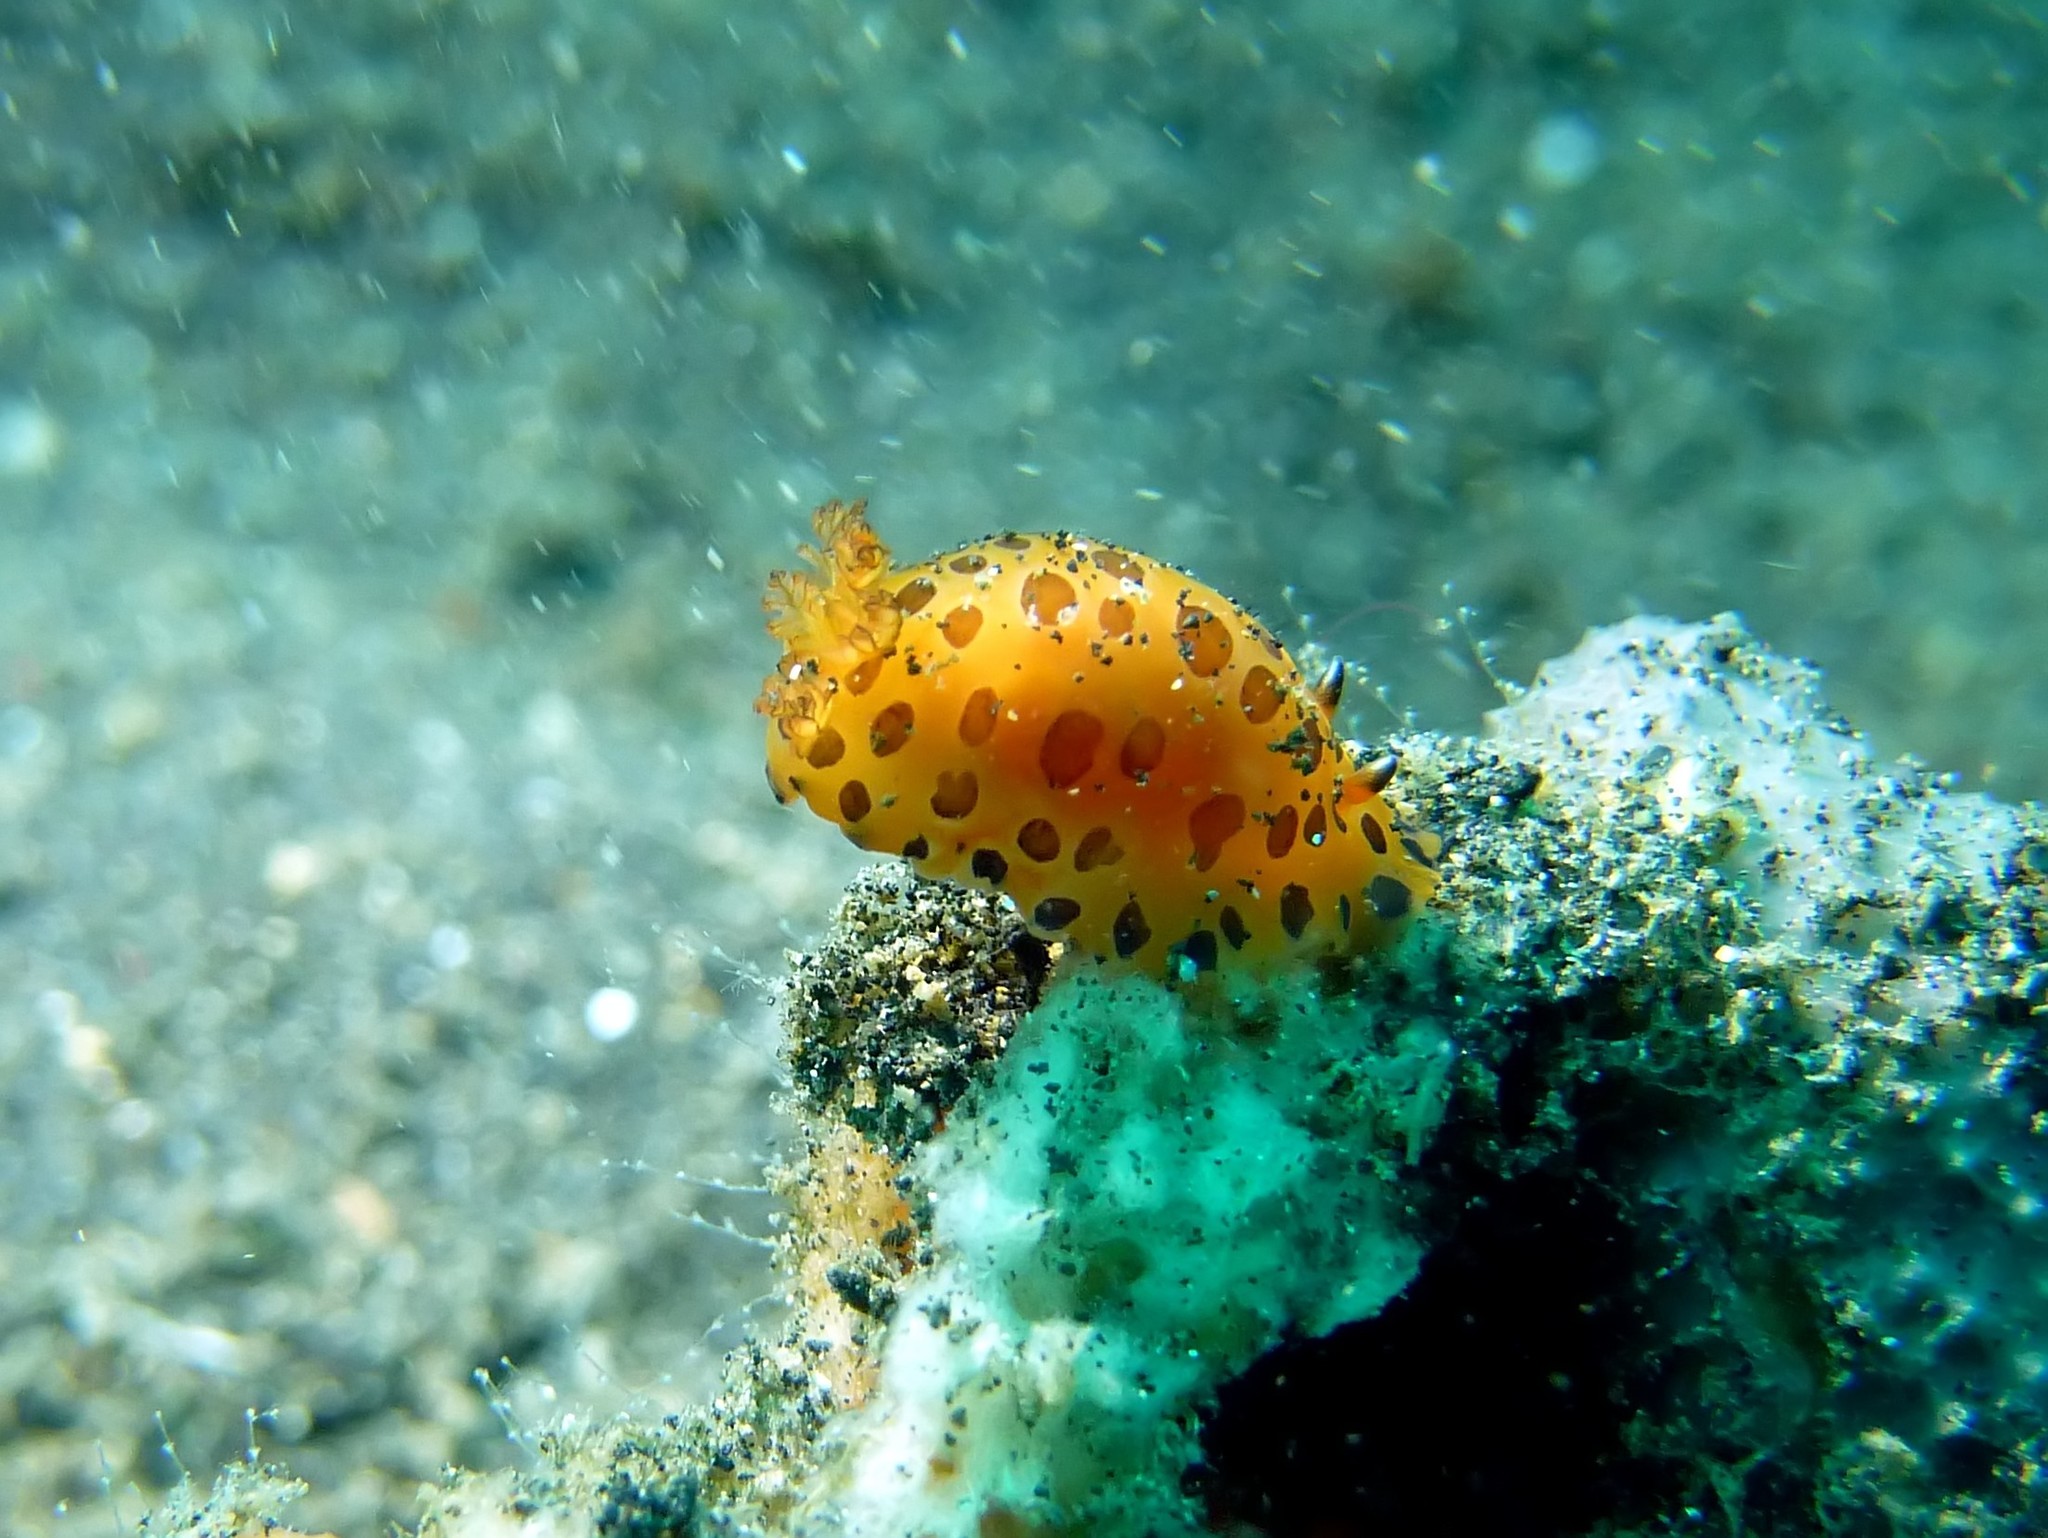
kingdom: Animalia
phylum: Mollusca
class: Gastropoda
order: Nudibranchia
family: Dendrodorididae
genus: Dendrodoris
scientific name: Dendrodoris guttata
